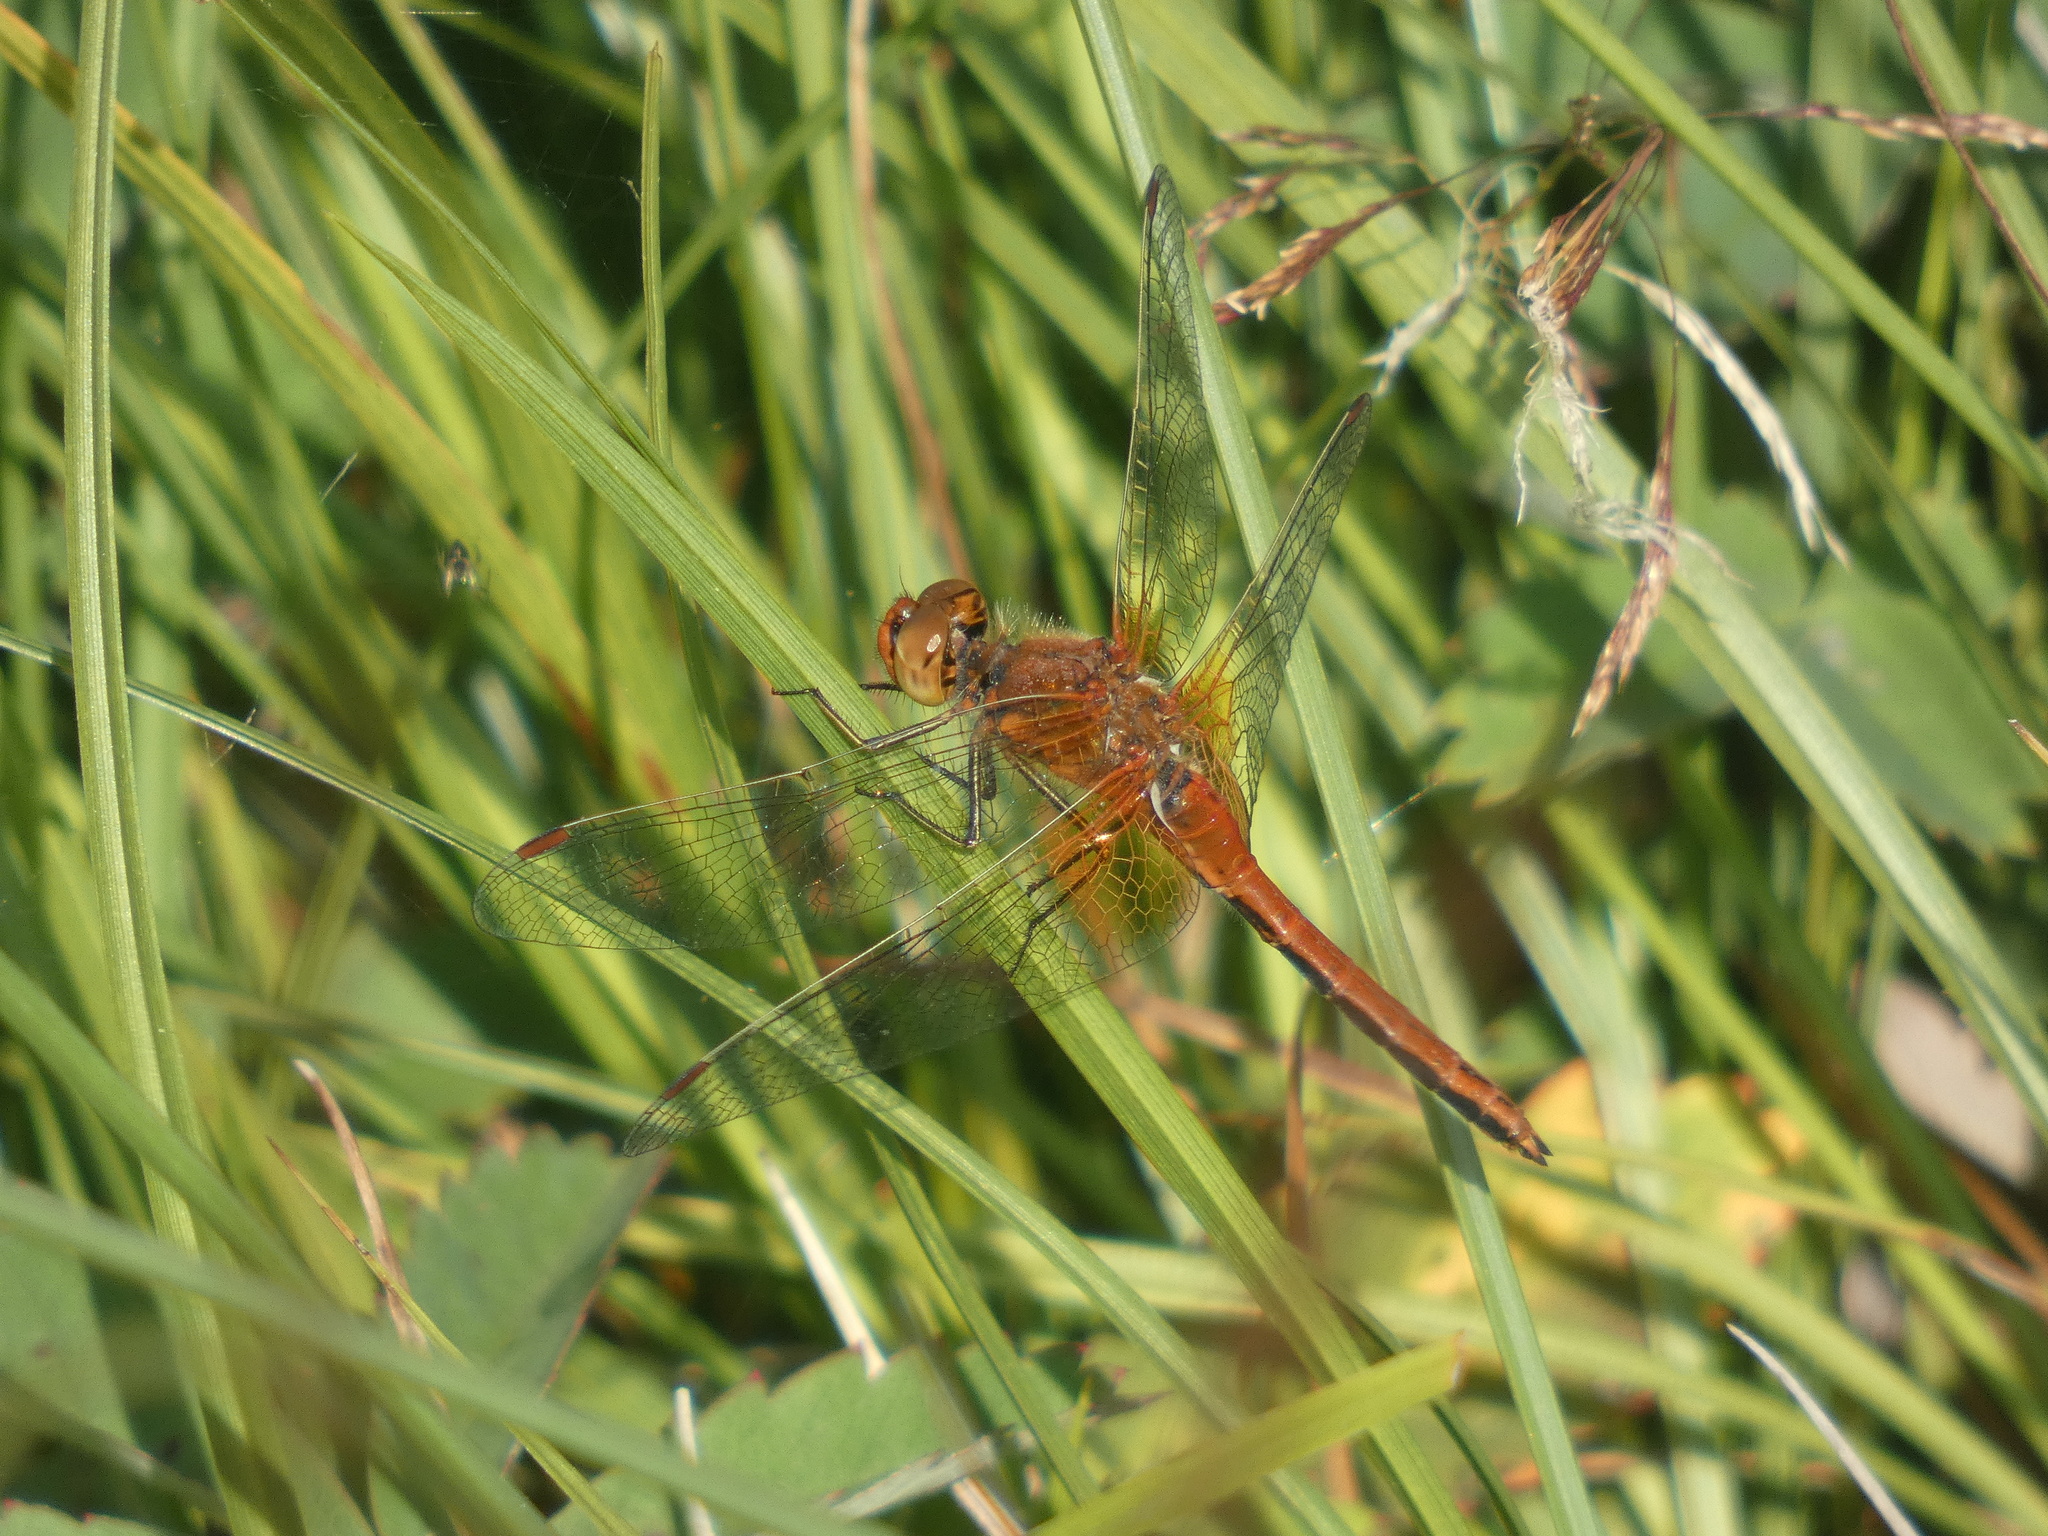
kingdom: Animalia
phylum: Arthropoda
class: Insecta
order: Odonata
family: Libellulidae
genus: Sympetrum
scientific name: Sympetrum flaveolum
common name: Yellow-winged darter
